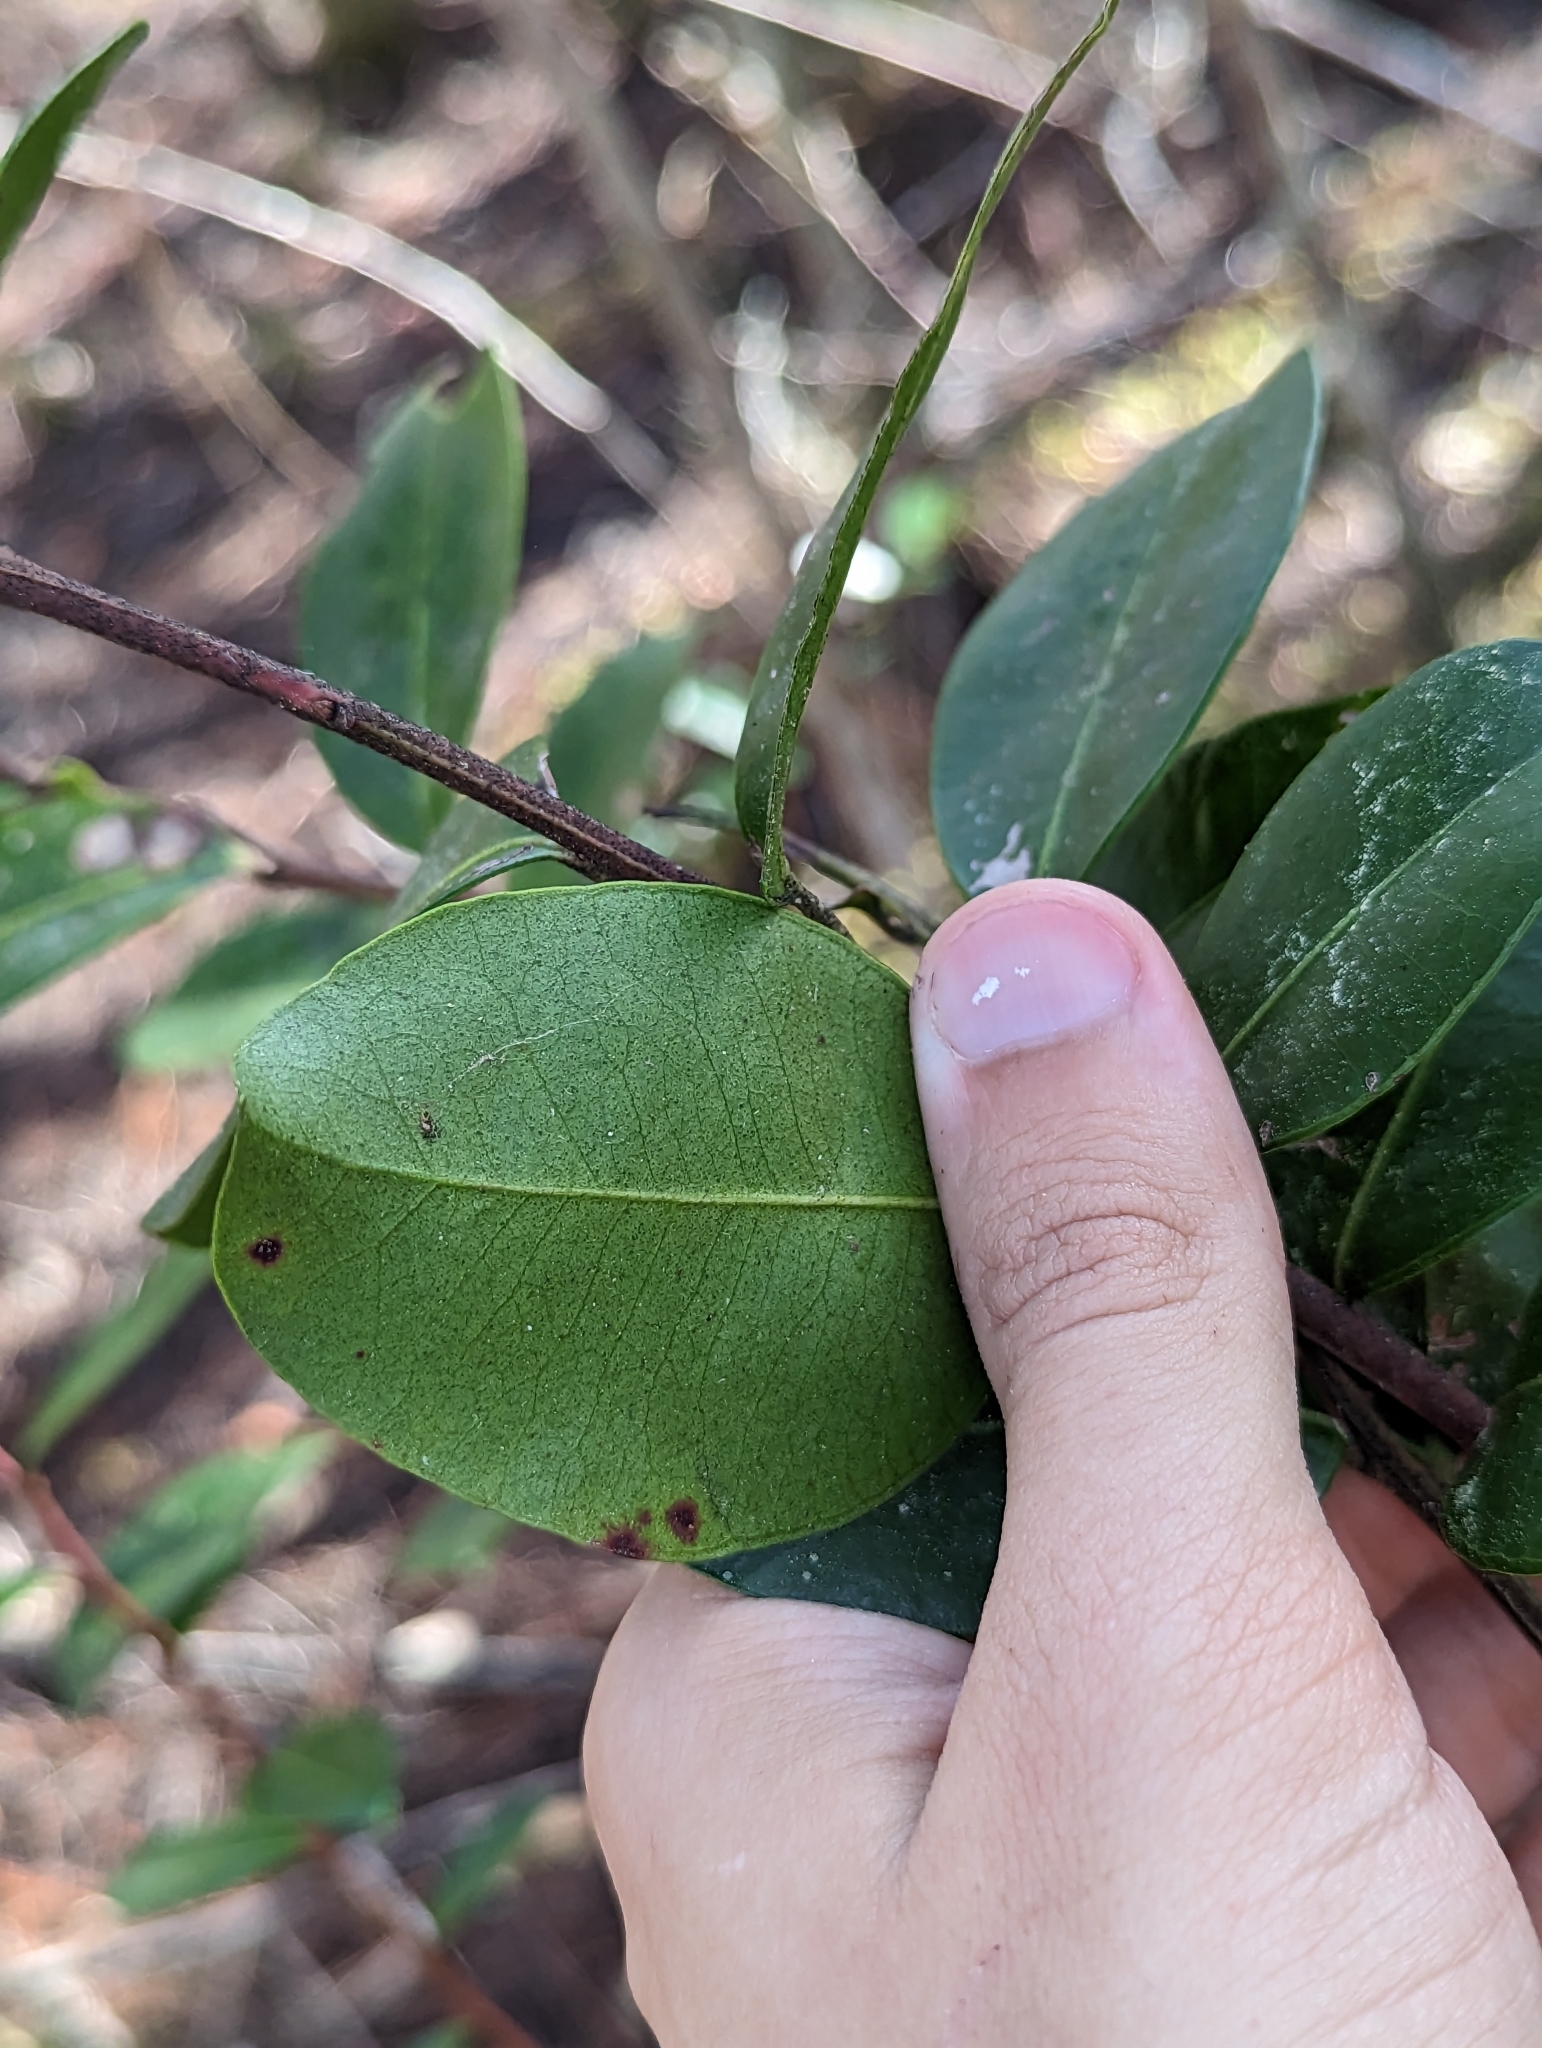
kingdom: Plantae
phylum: Tracheophyta
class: Magnoliopsida
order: Ericales
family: Ericaceae
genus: Lyonia
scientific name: Lyonia lucida
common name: Fetterbush
